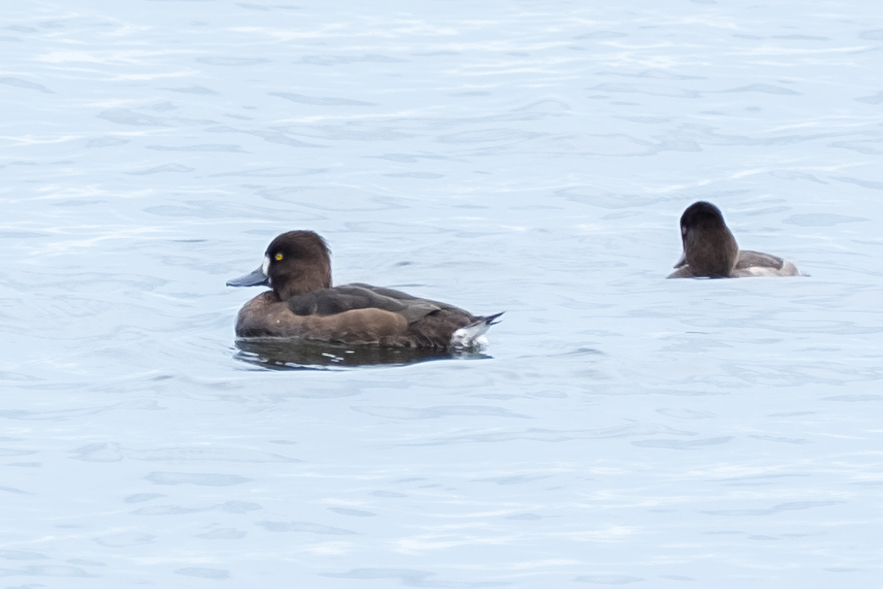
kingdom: Animalia
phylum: Chordata
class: Aves
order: Anseriformes
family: Anatidae
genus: Aythya
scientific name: Aythya fuligula
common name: Tufted duck
